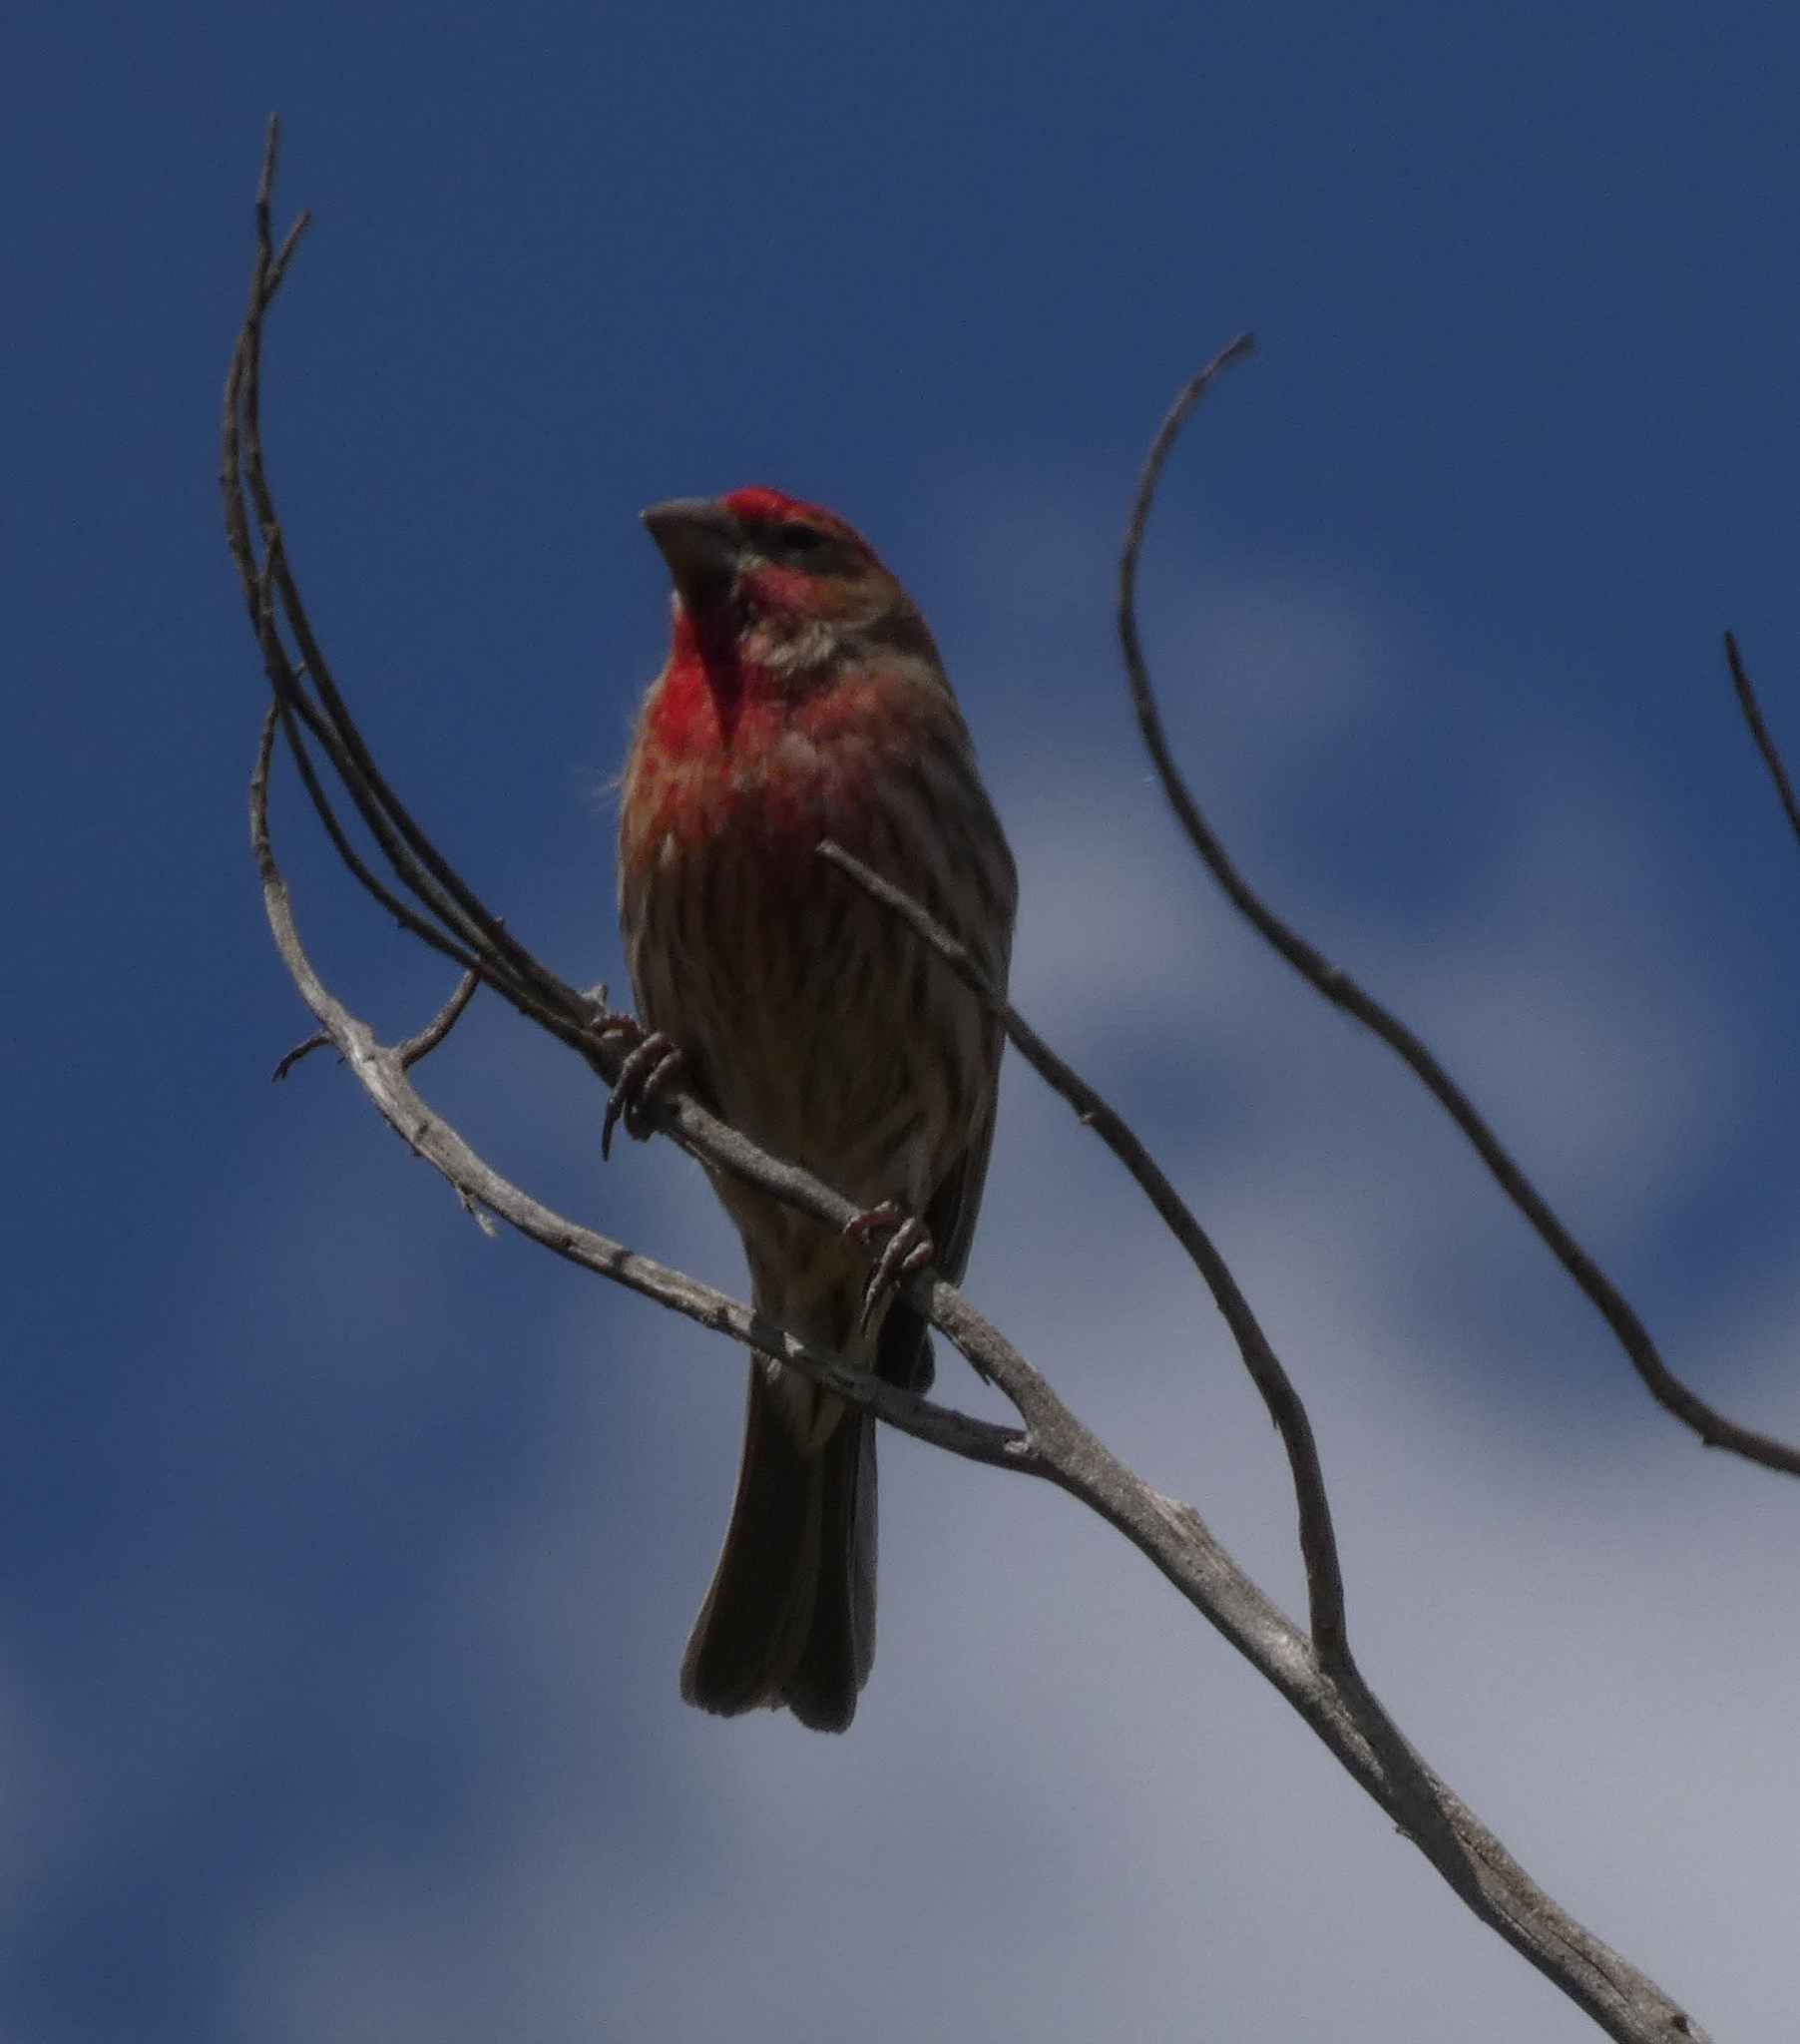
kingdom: Animalia
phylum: Chordata
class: Aves
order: Passeriformes
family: Fringillidae
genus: Haemorhous
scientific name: Haemorhous mexicanus
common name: House finch
